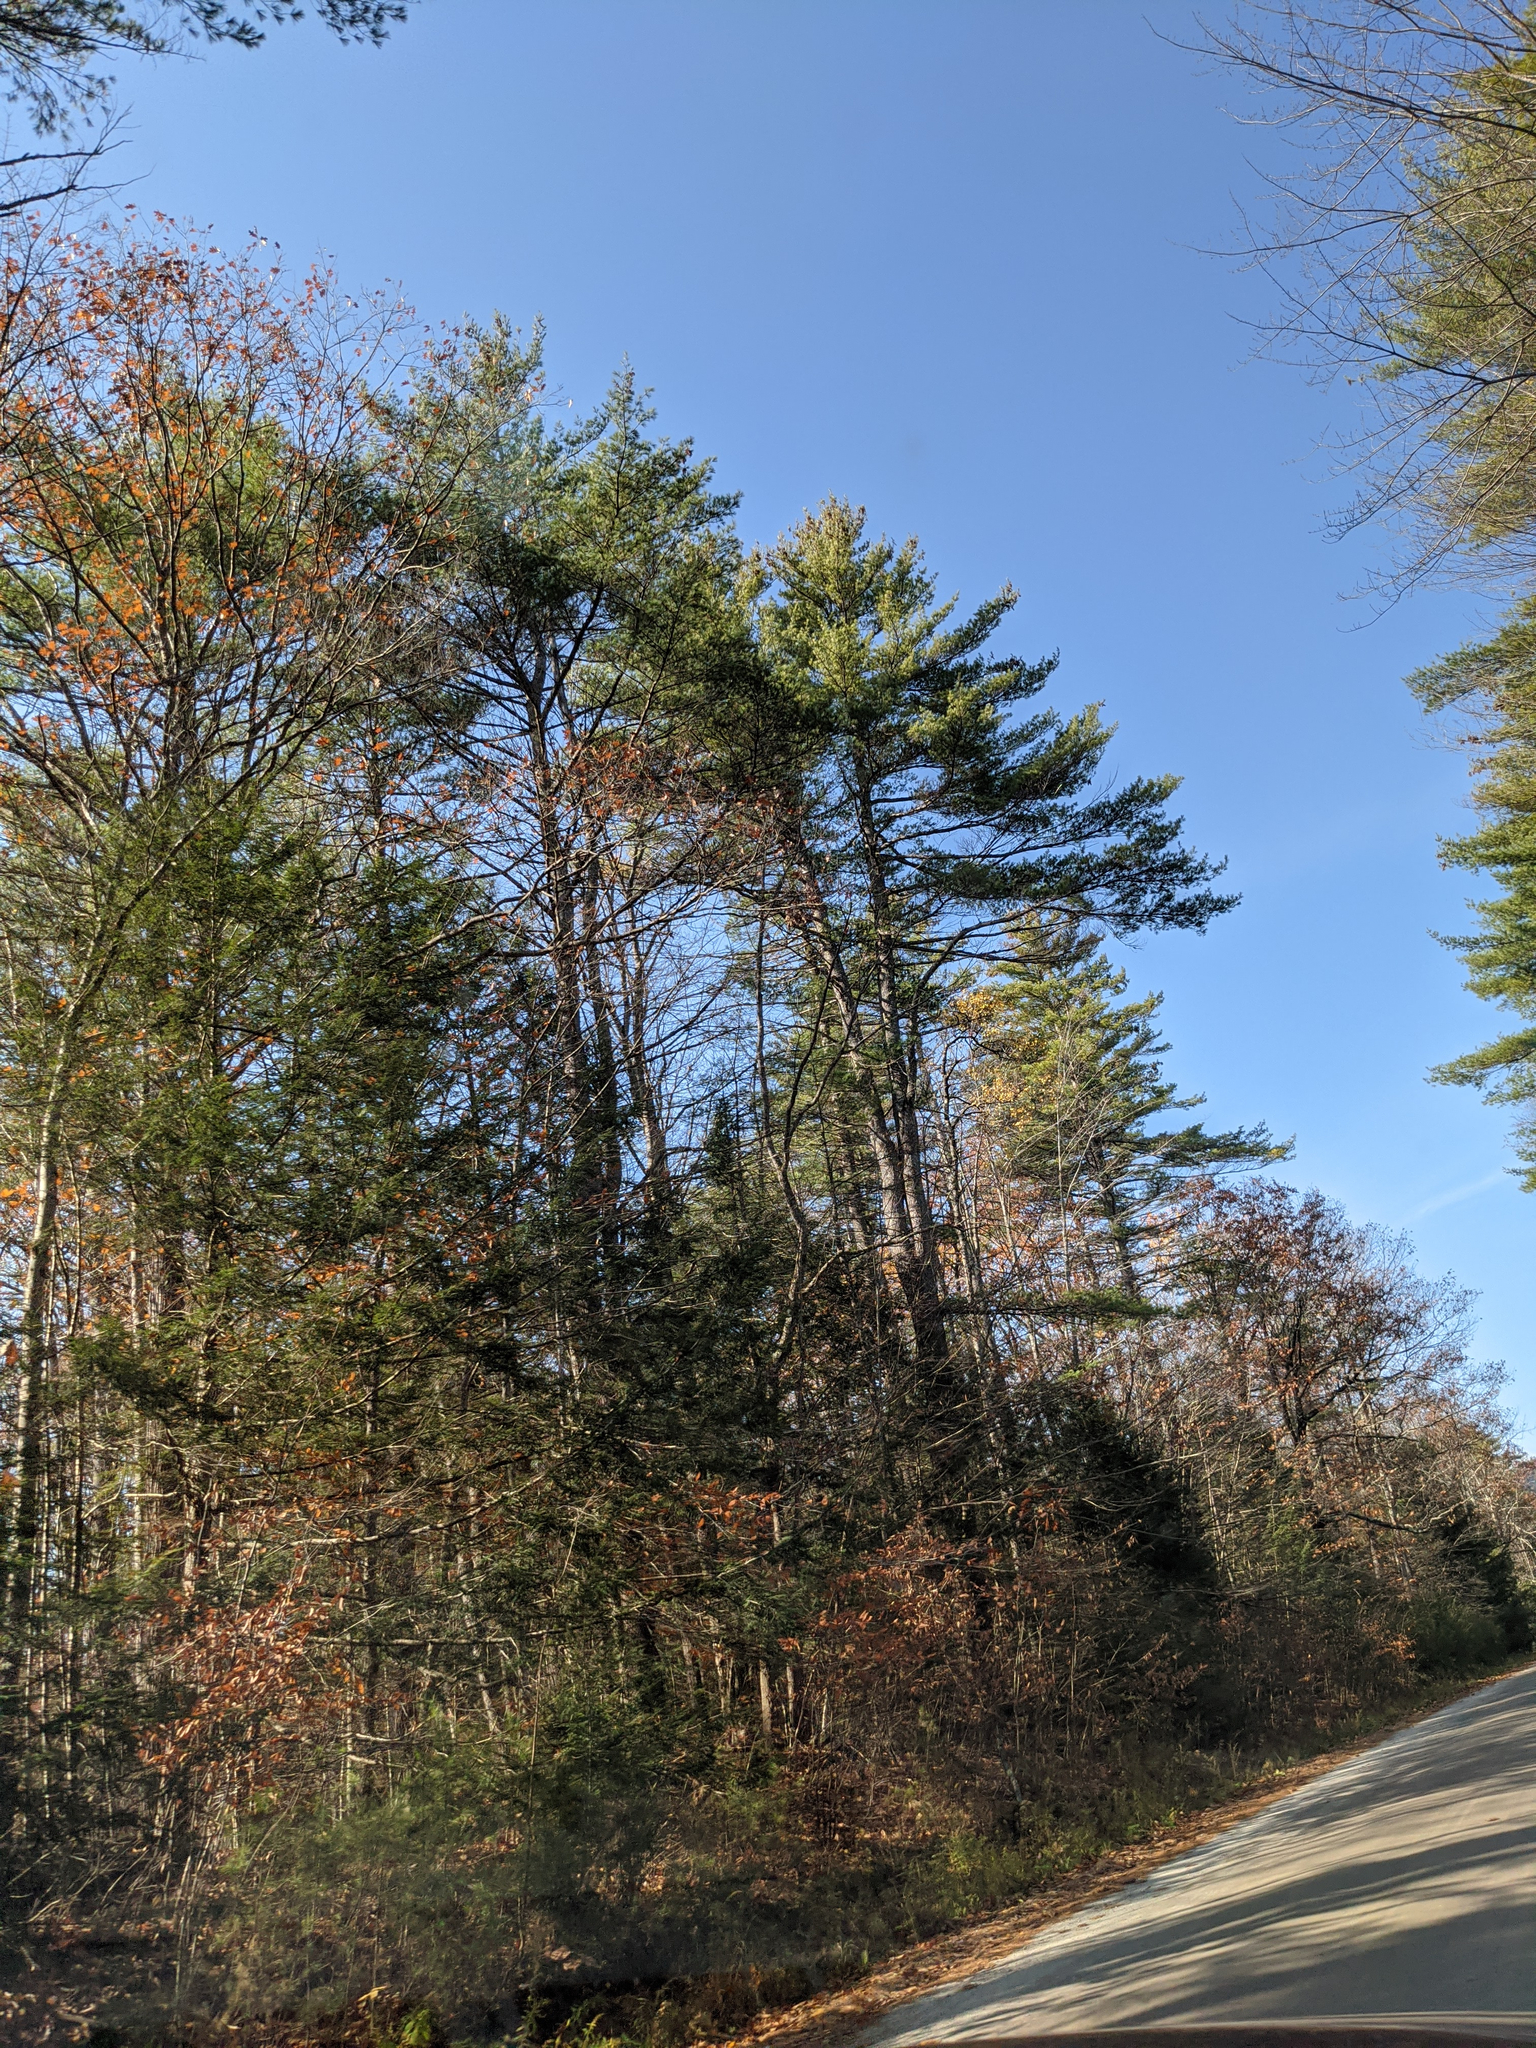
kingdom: Plantae
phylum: Tracheophyta
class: Pinopsida
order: Pinales
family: Pinaceae
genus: Pinus
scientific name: Pinus strobus
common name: Weymouth pine
